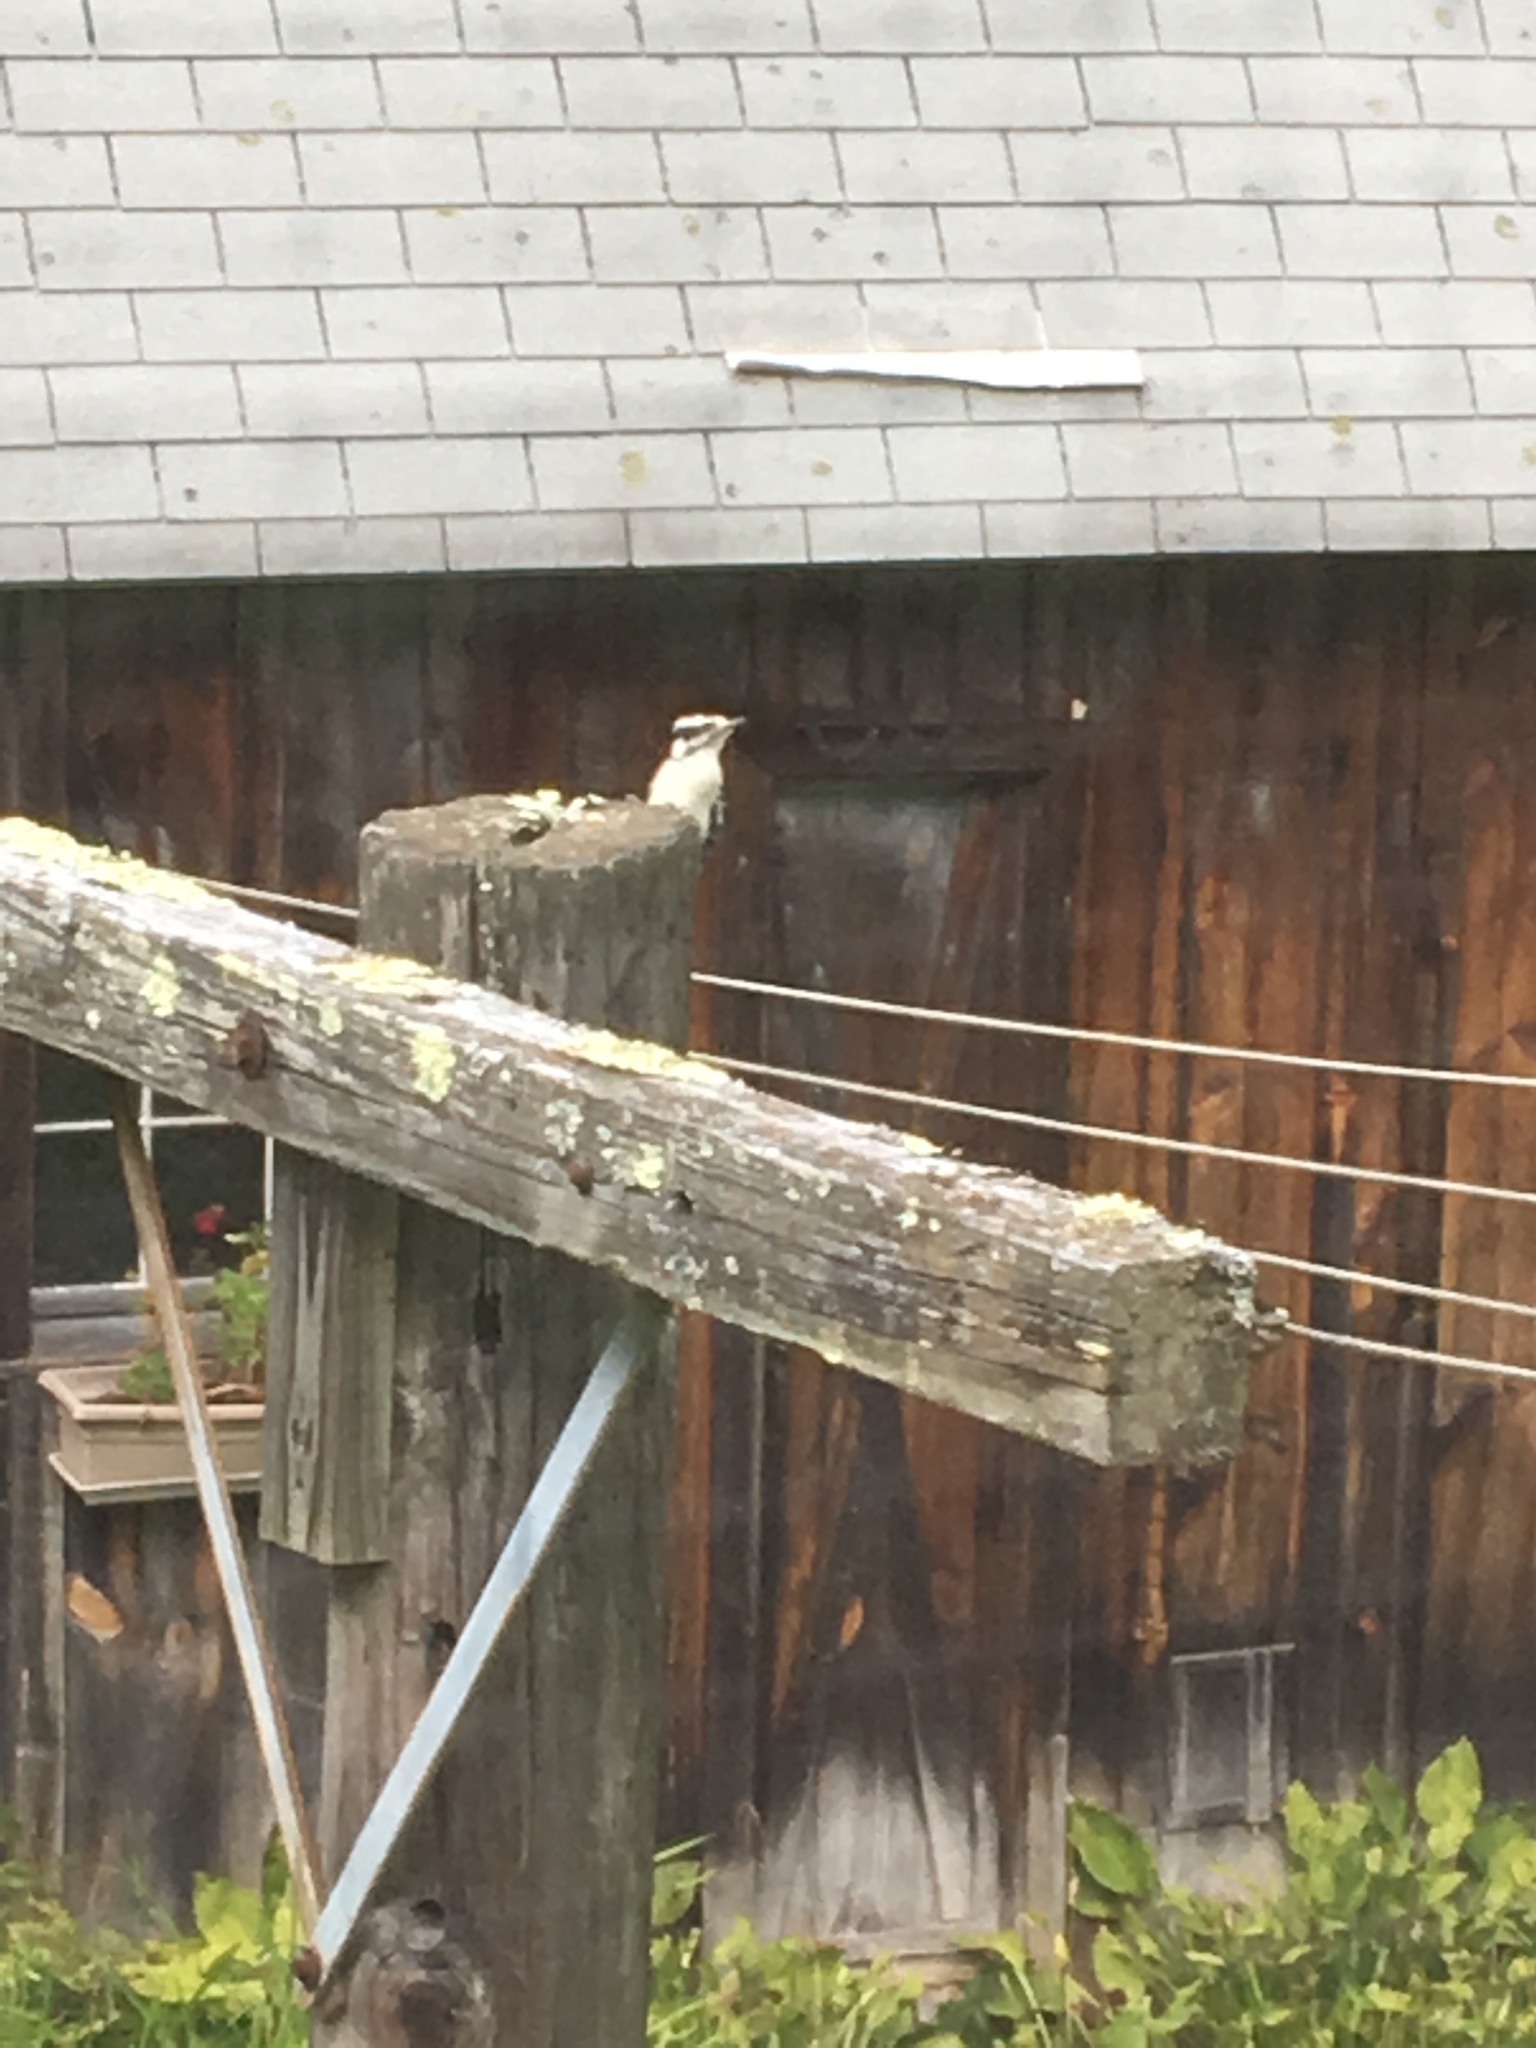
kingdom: Animalia
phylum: Chordata
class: Aves
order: Piciformes
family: Picidae
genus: Dryobates
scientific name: Dryobates pubescens
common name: Downy woodpecker
